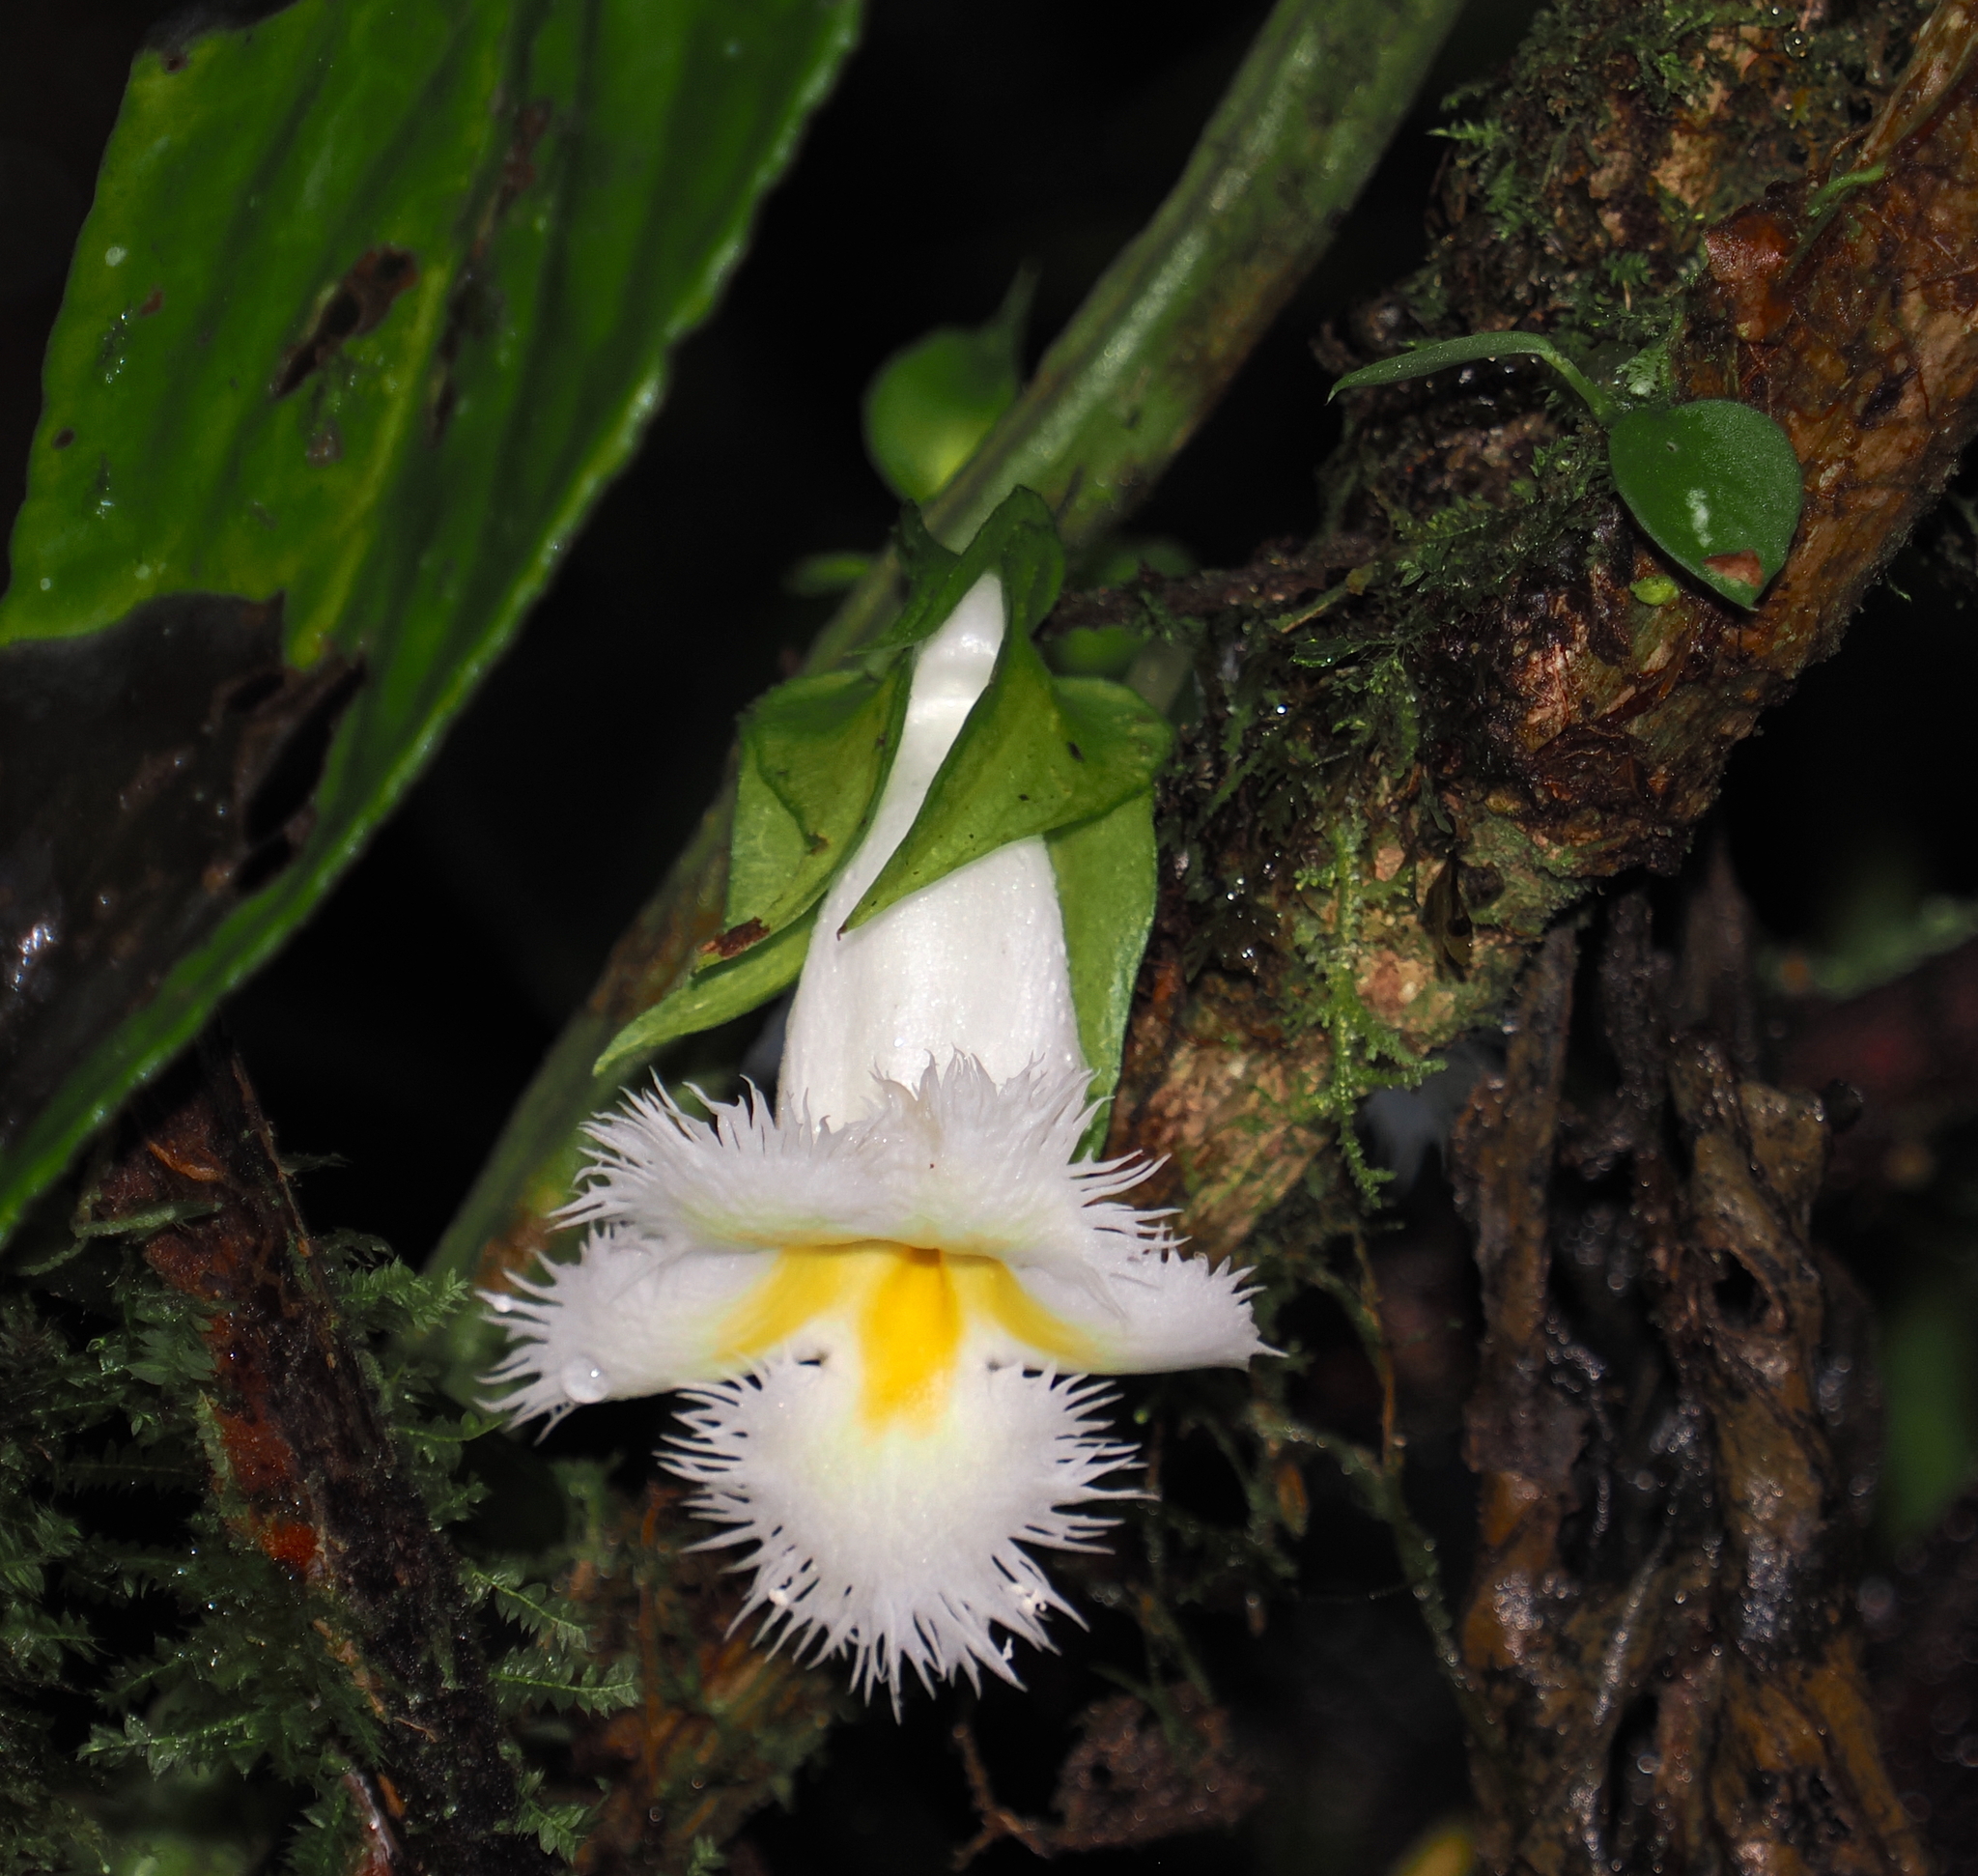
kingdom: Plantae
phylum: Tracheophyta
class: Magnoliopsida
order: Lamiales
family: Gesneriaceae
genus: Drymonia
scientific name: Drymonia lanceolata
